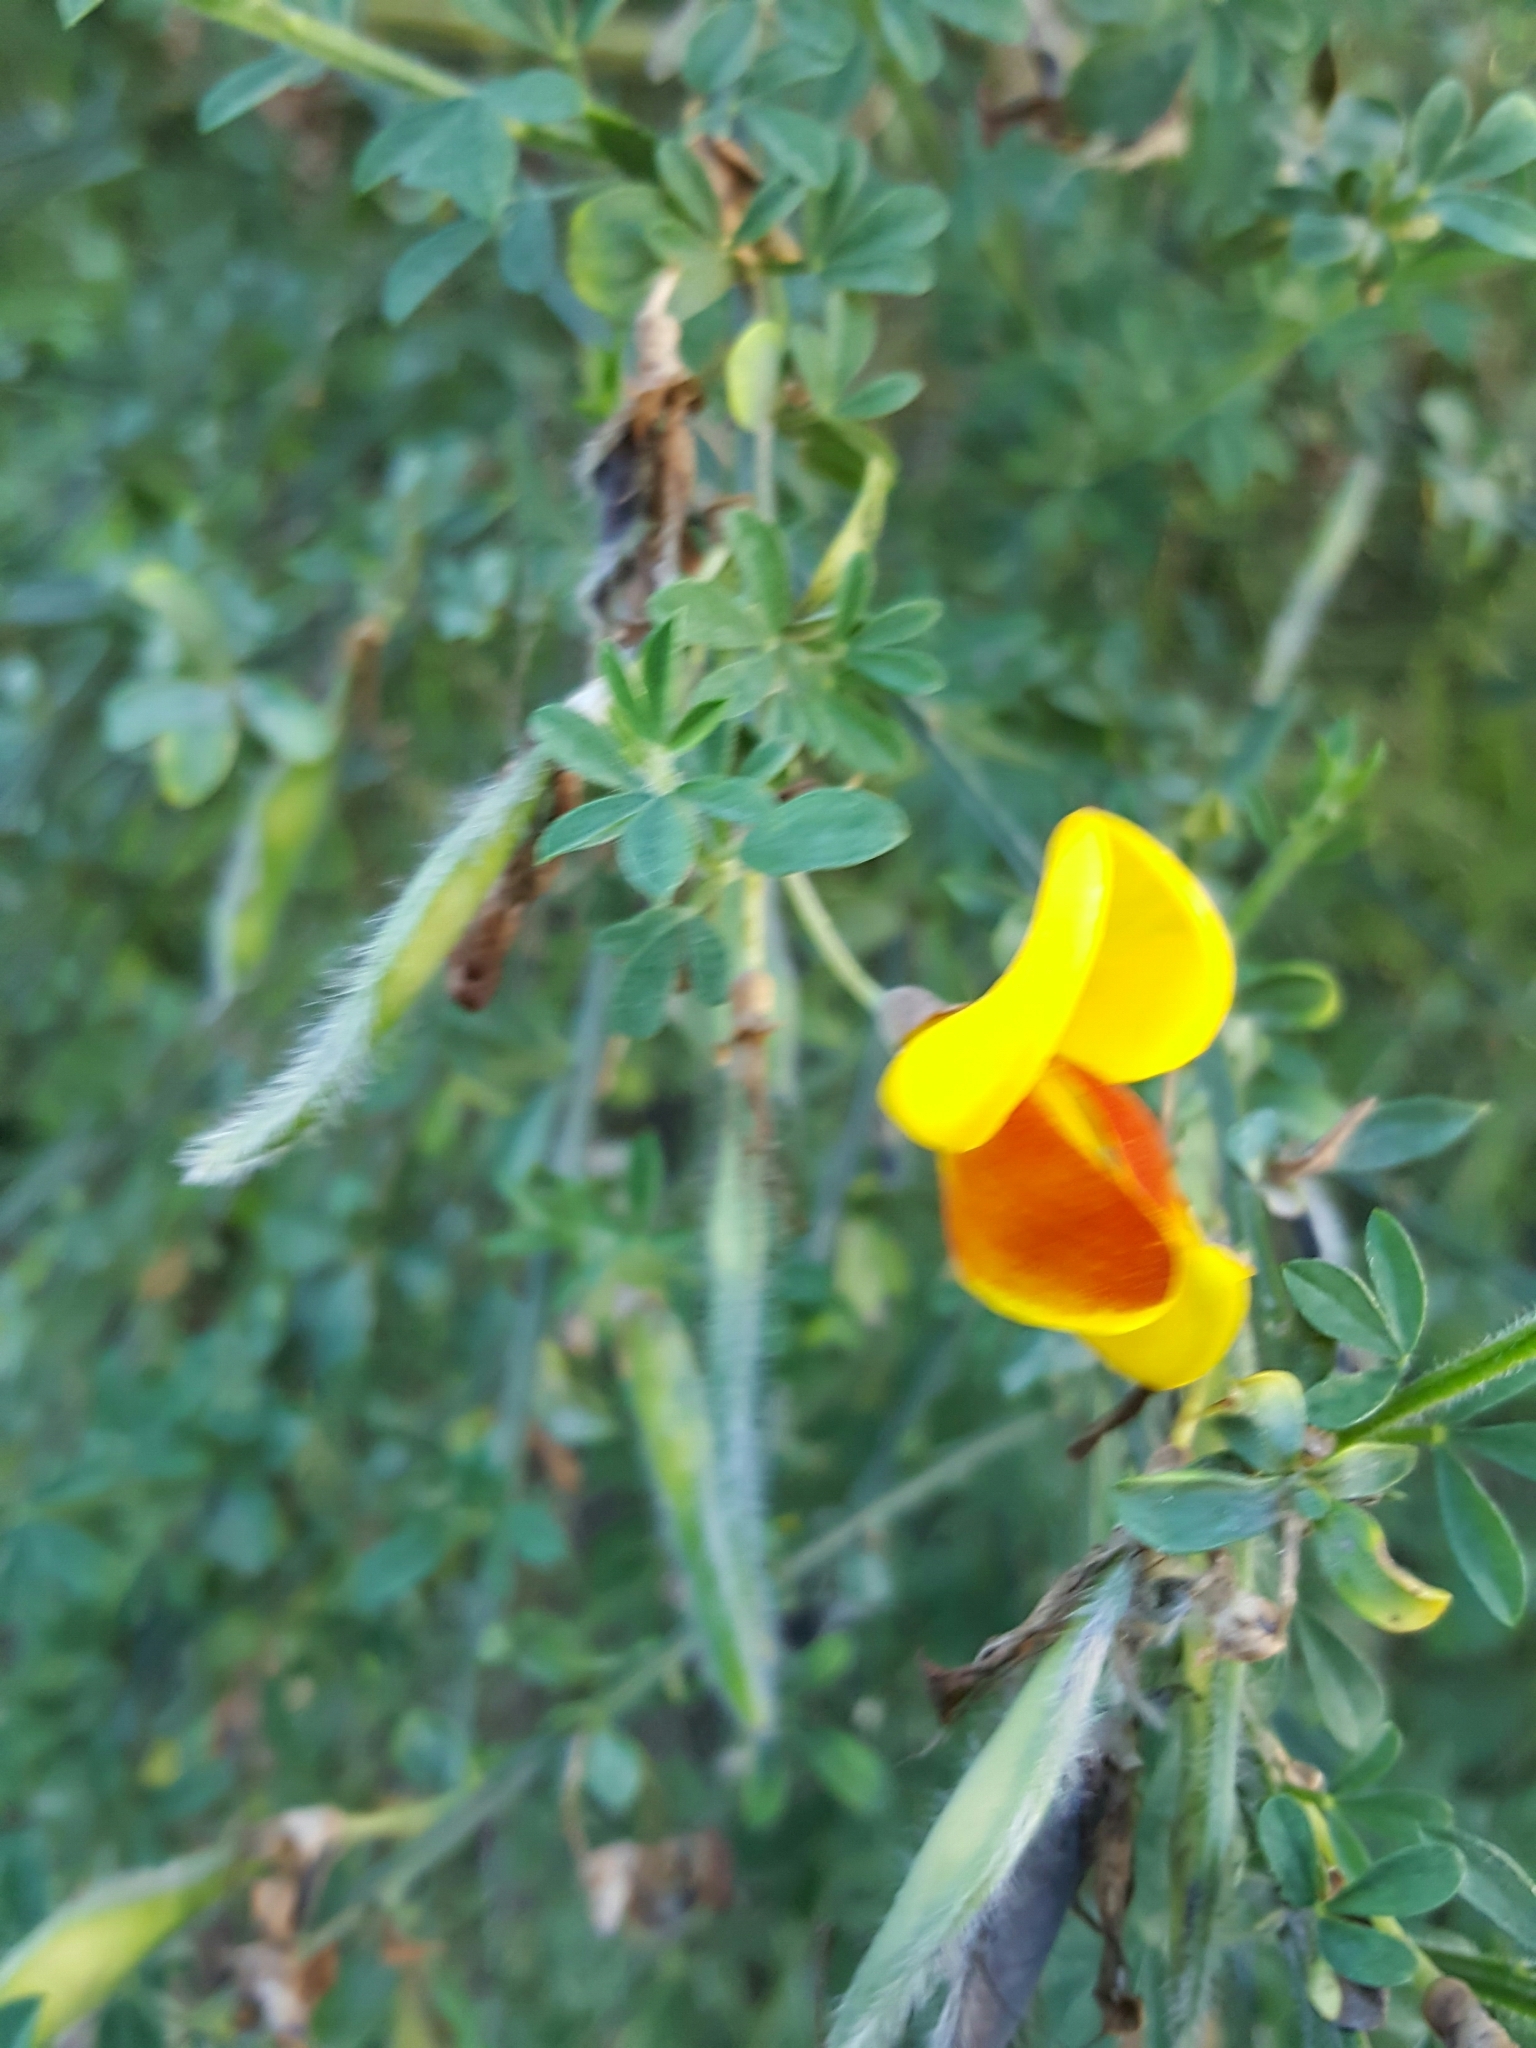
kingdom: Plantae
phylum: Tracheophyta
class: Magnoliopsida
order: Fabales
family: Fabaceae
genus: Cytisus
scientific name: Cytisus scoparius
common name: Scotch broom
